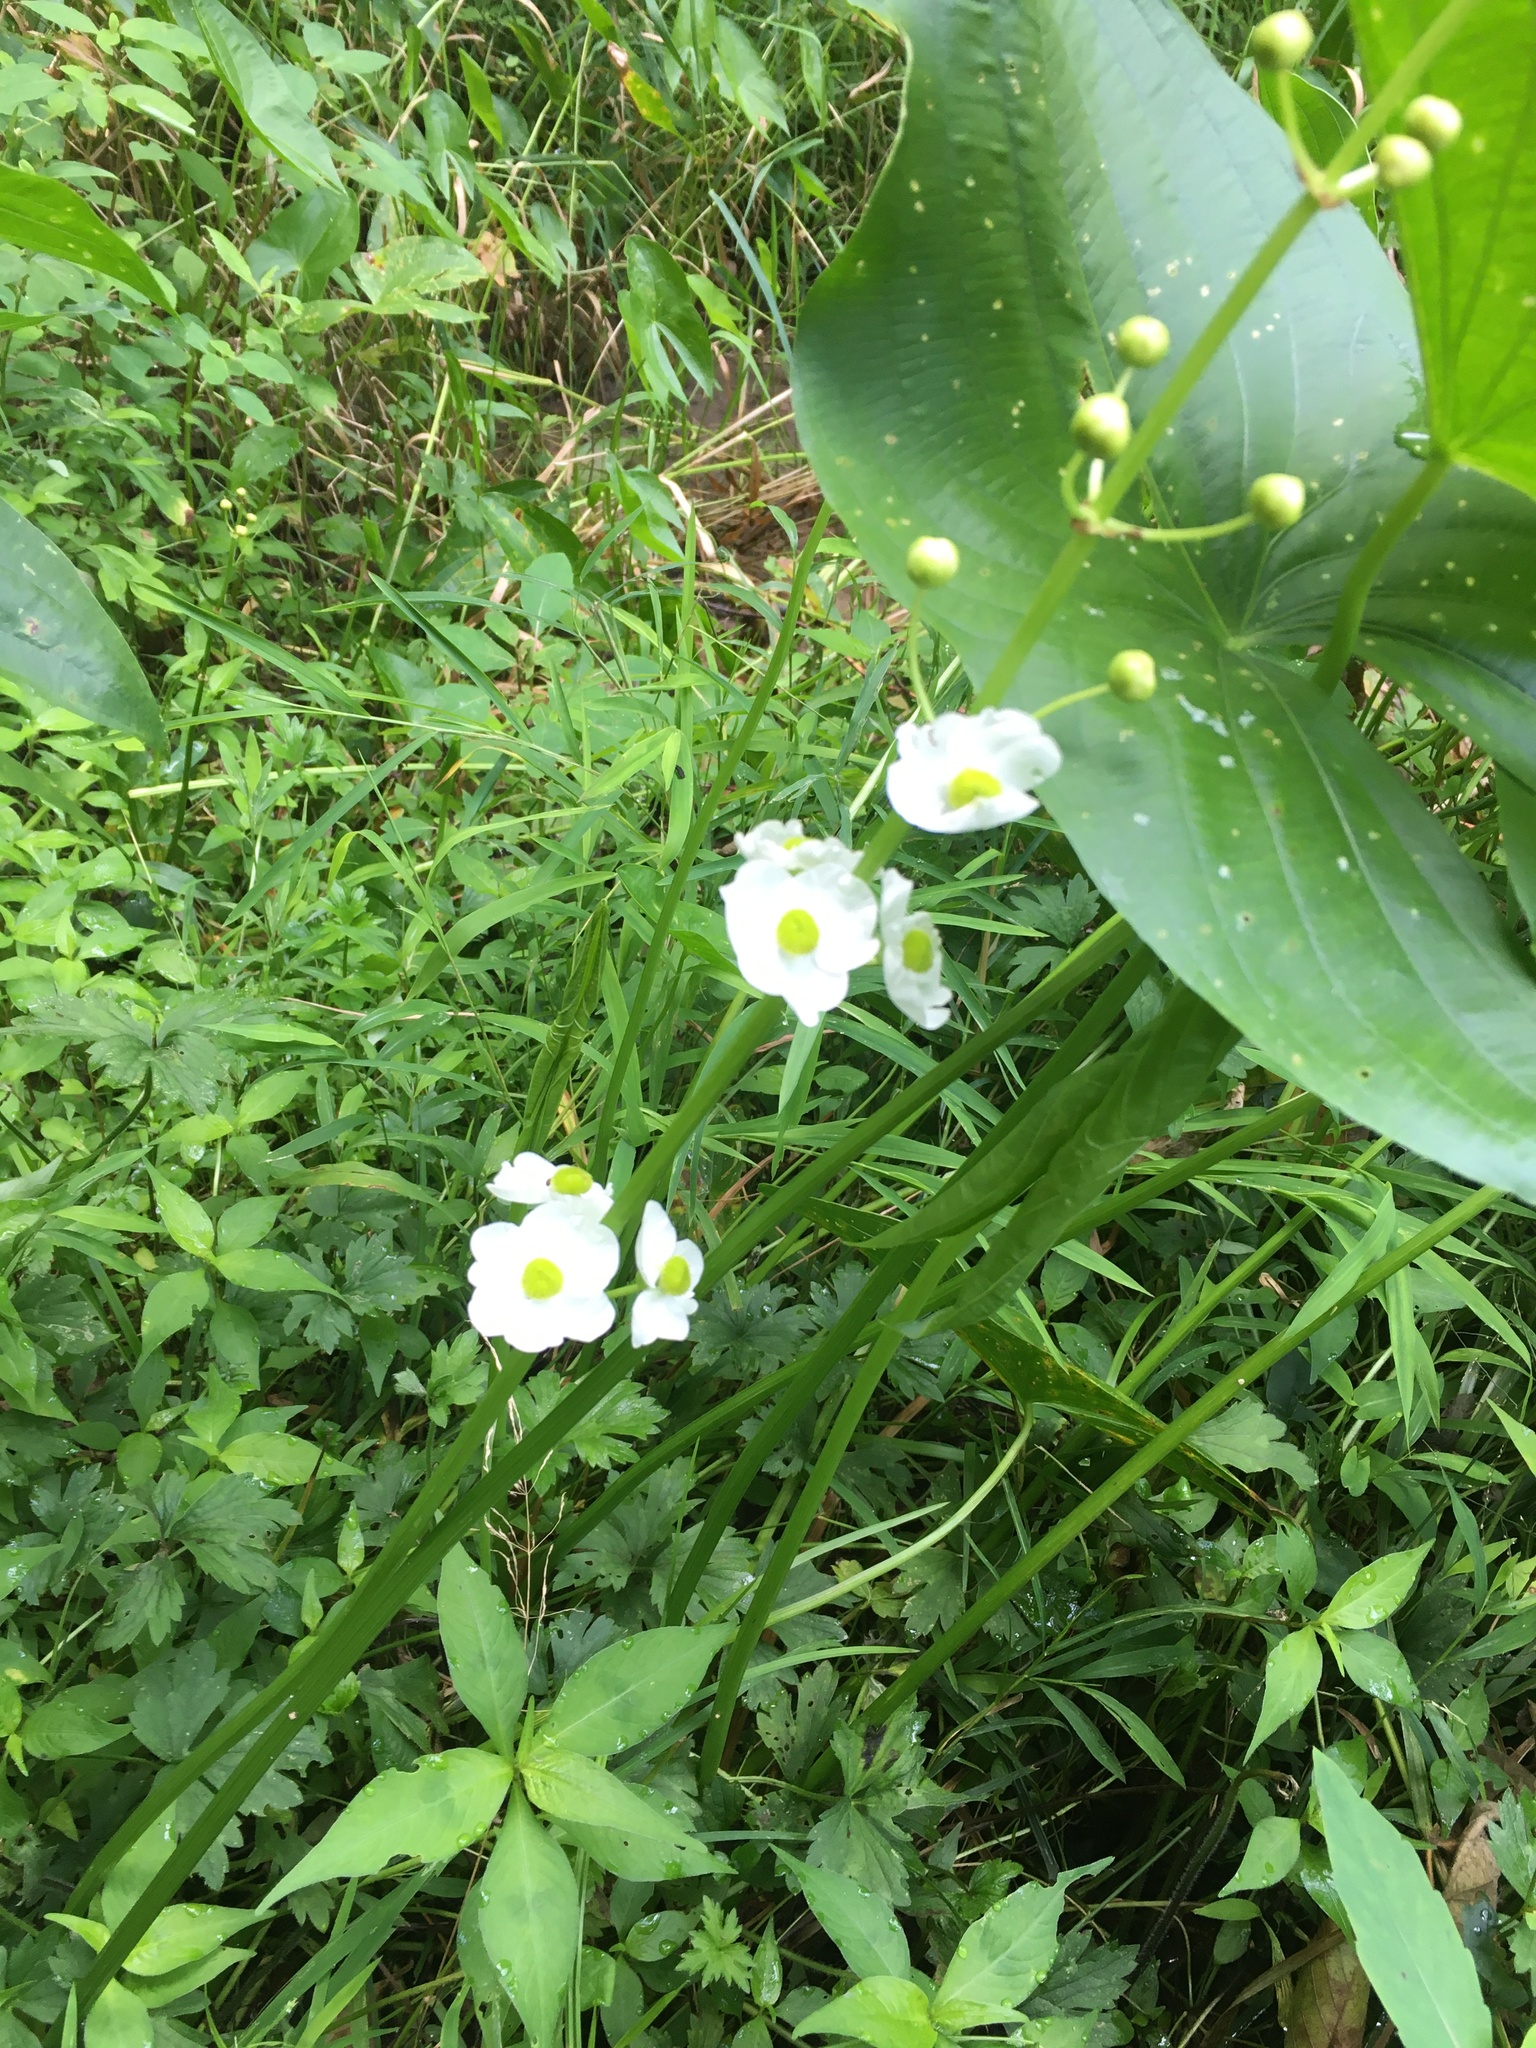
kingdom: Plantae
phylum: Tracheophyta
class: Liliopsida
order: Alismatales
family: Alismataceae
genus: Sagittaria
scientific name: Sagittaria latifolia
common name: Duck-potato
